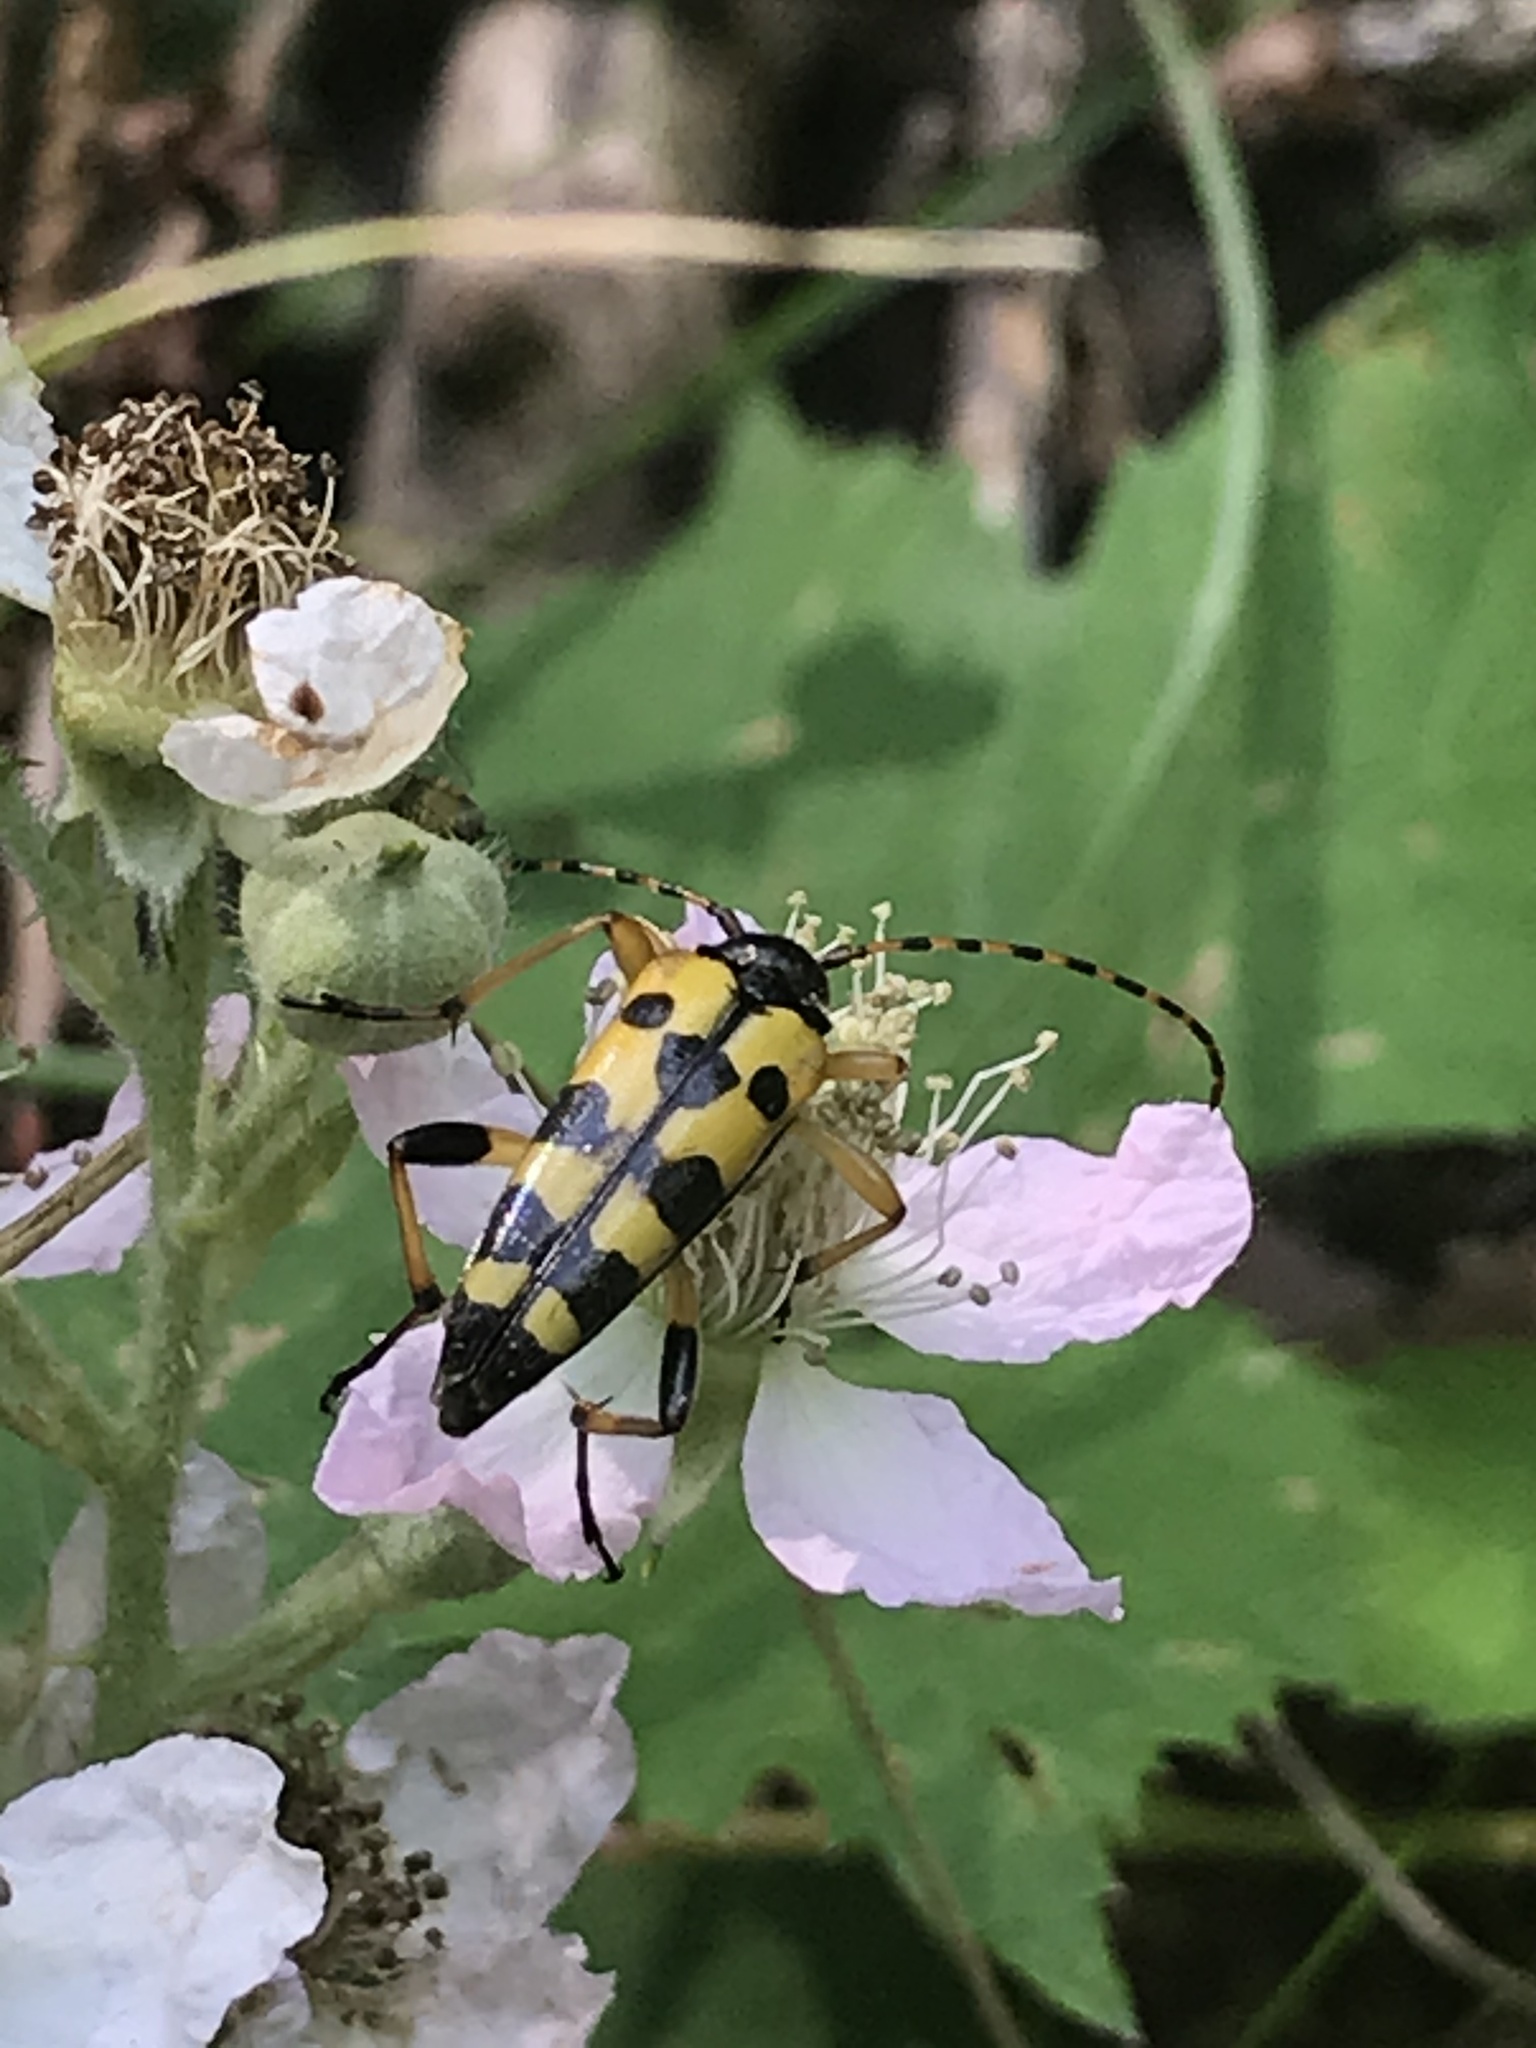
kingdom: Animalia
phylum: Arthropoda
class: Insecta
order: Coleoptera
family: Cerambycidae
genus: Rutpela
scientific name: Rutpela maculata
